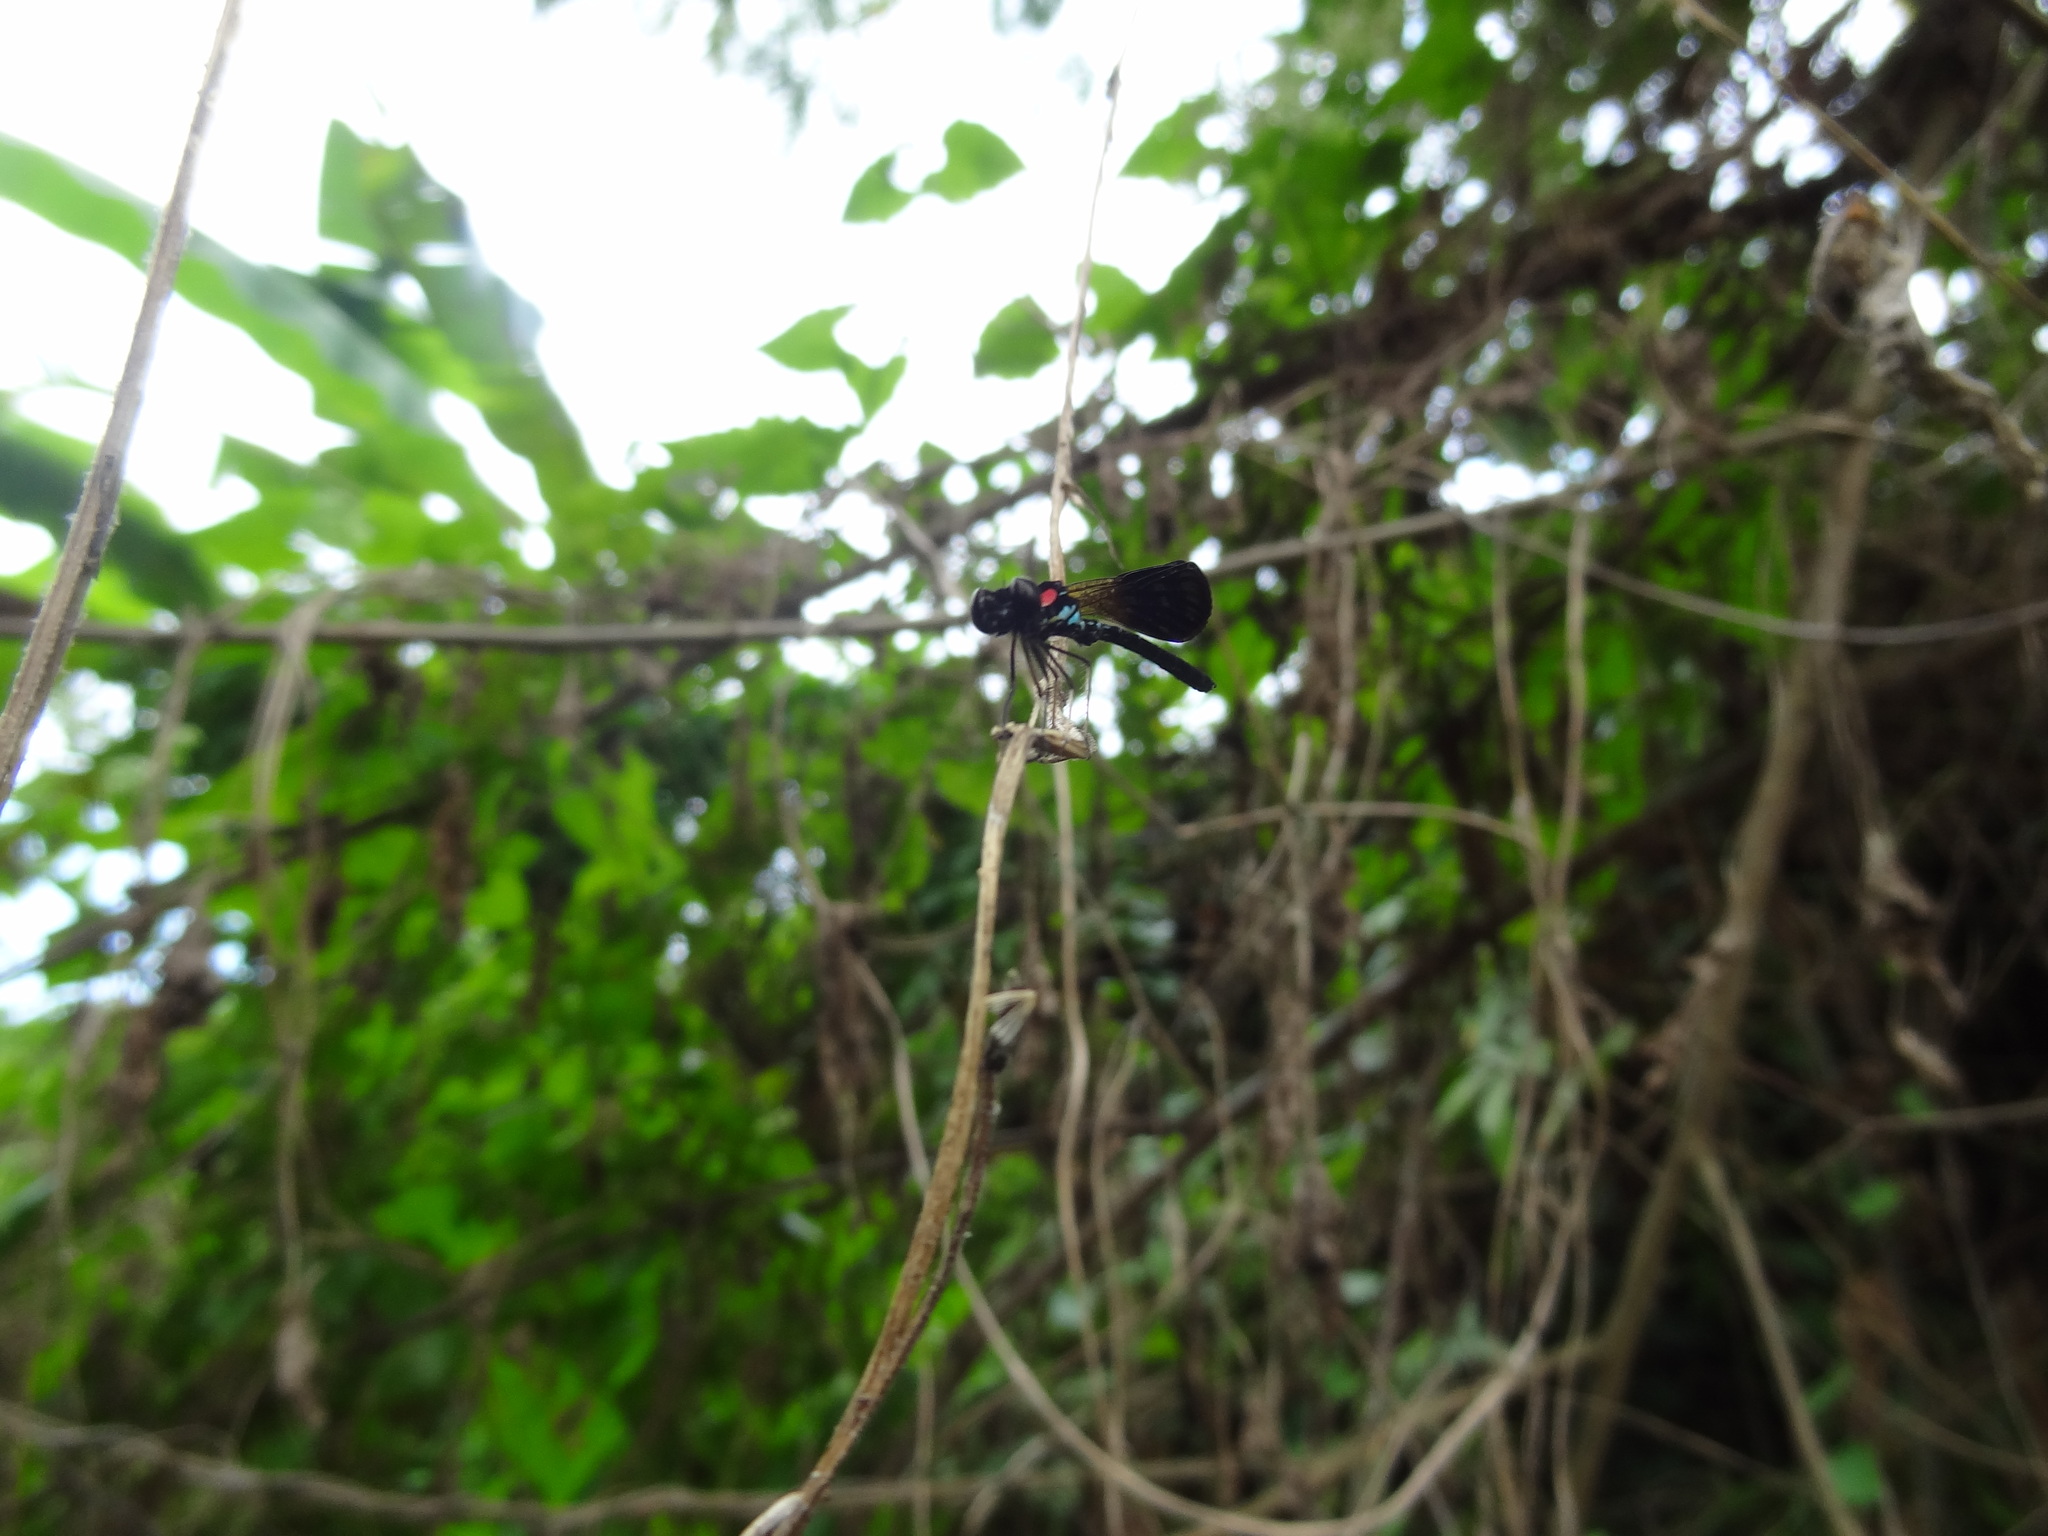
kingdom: Animalia
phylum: Arthropoda
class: Insecta
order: Odonata
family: Chlorocyphidae
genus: Heliocypha
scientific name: Heliocypha fenestrata
